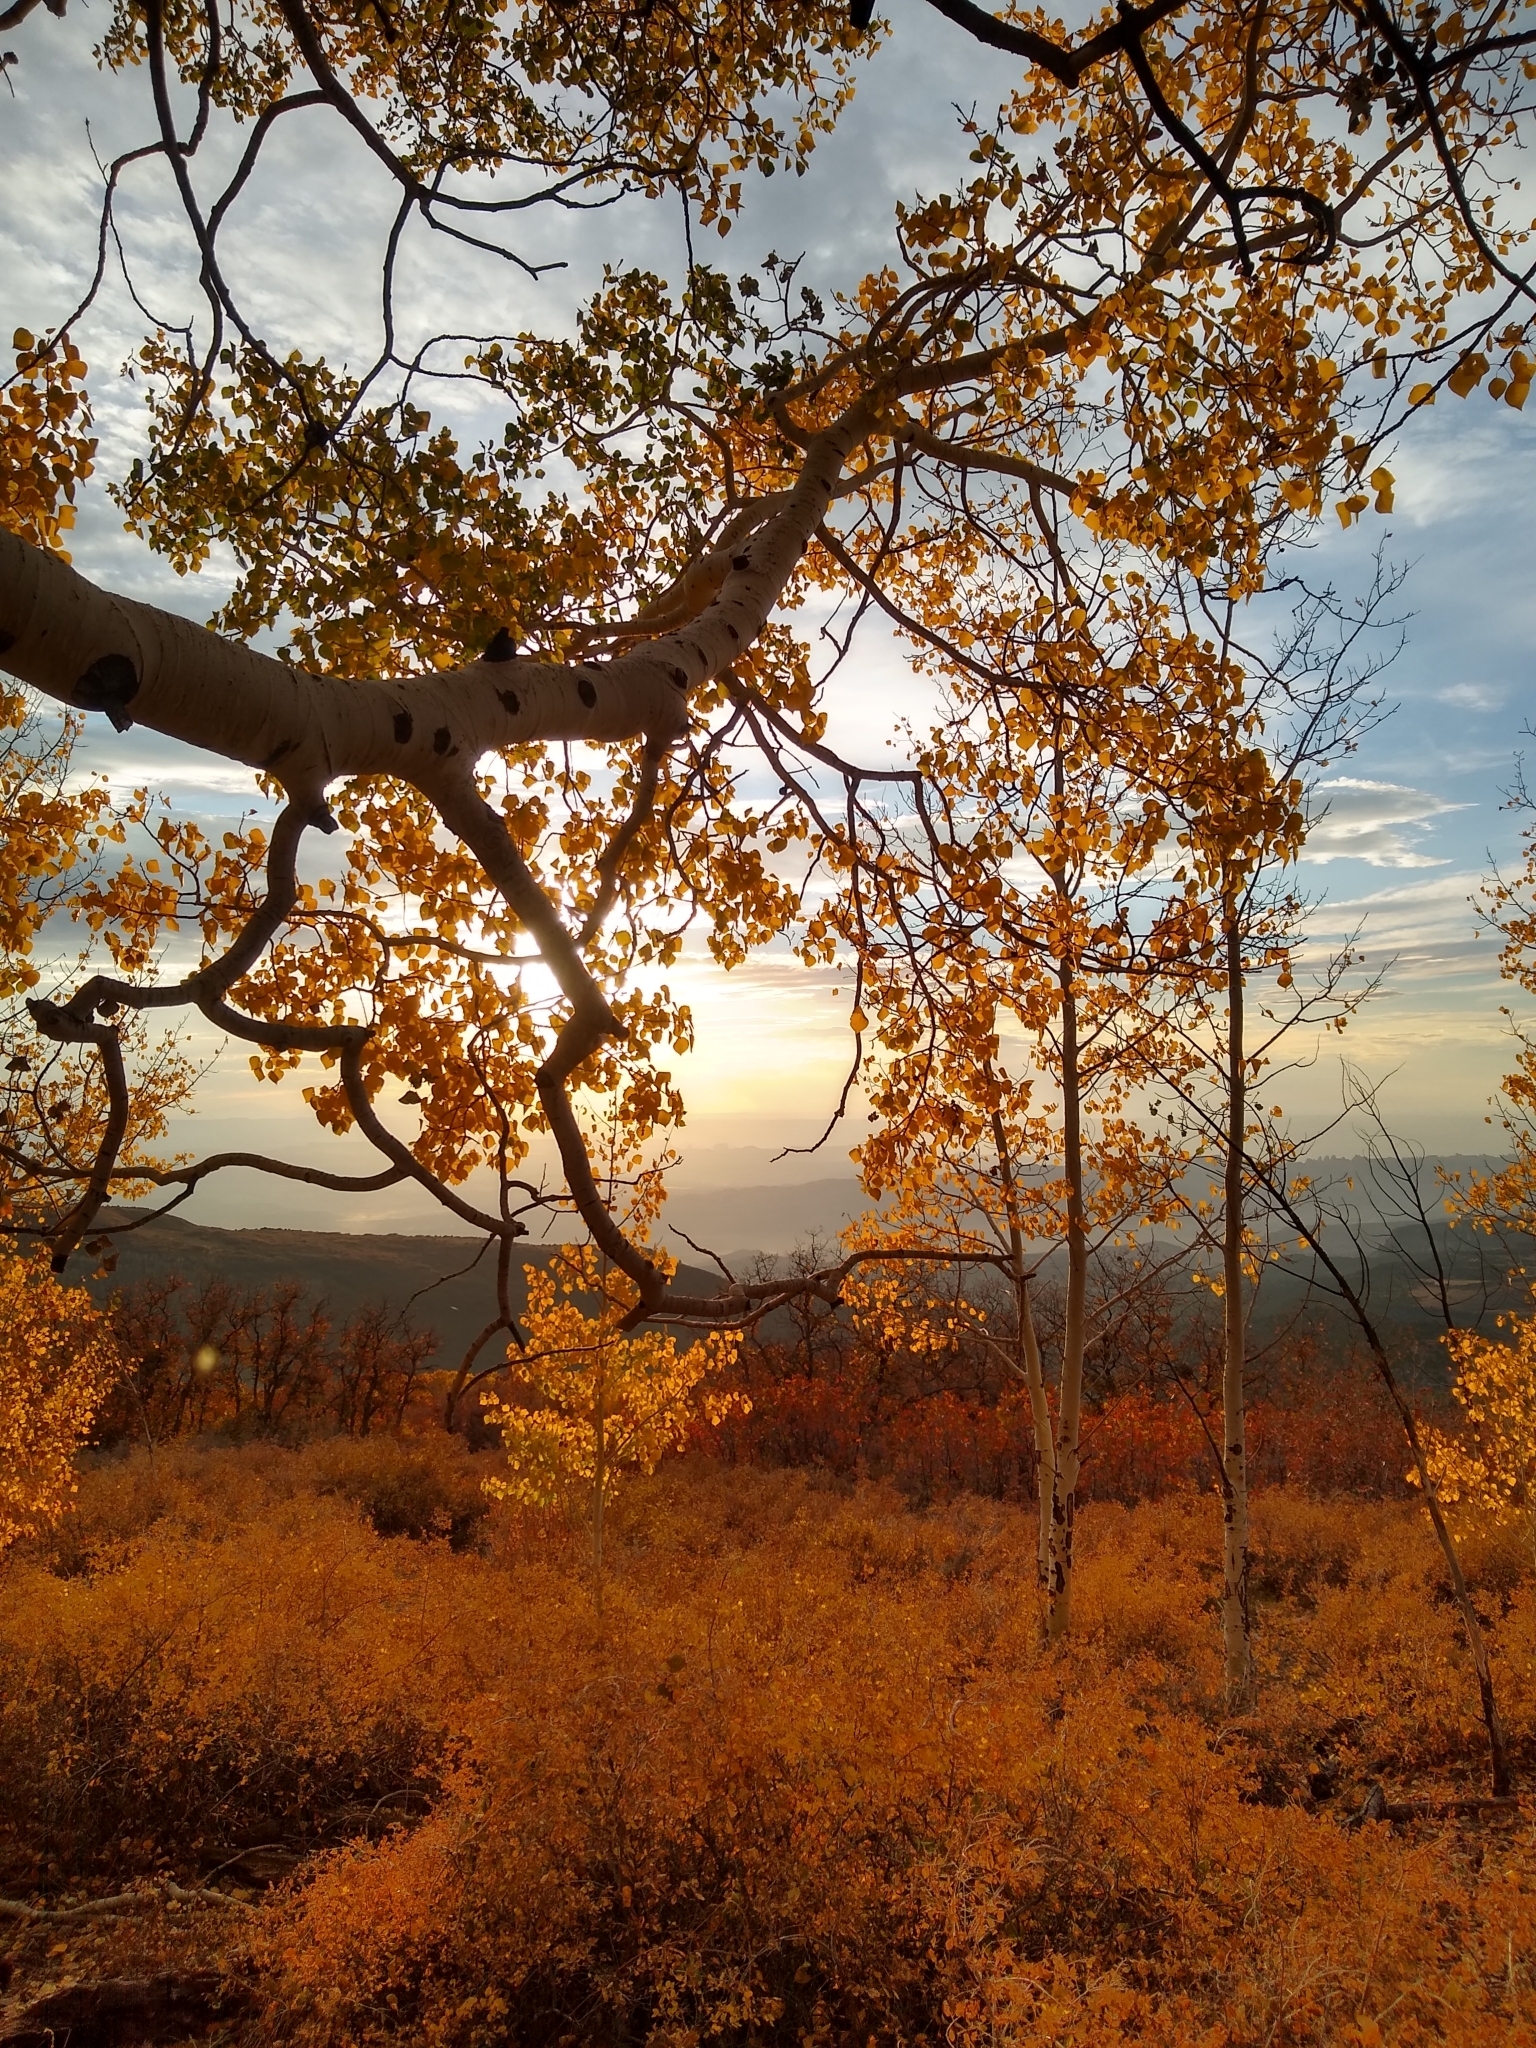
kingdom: Plantae
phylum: Tracheophyta
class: Magnoliopsida
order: Malpighiales
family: Salicaceae
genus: Populus
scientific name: Populus tremuloides
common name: Quaking aspen
